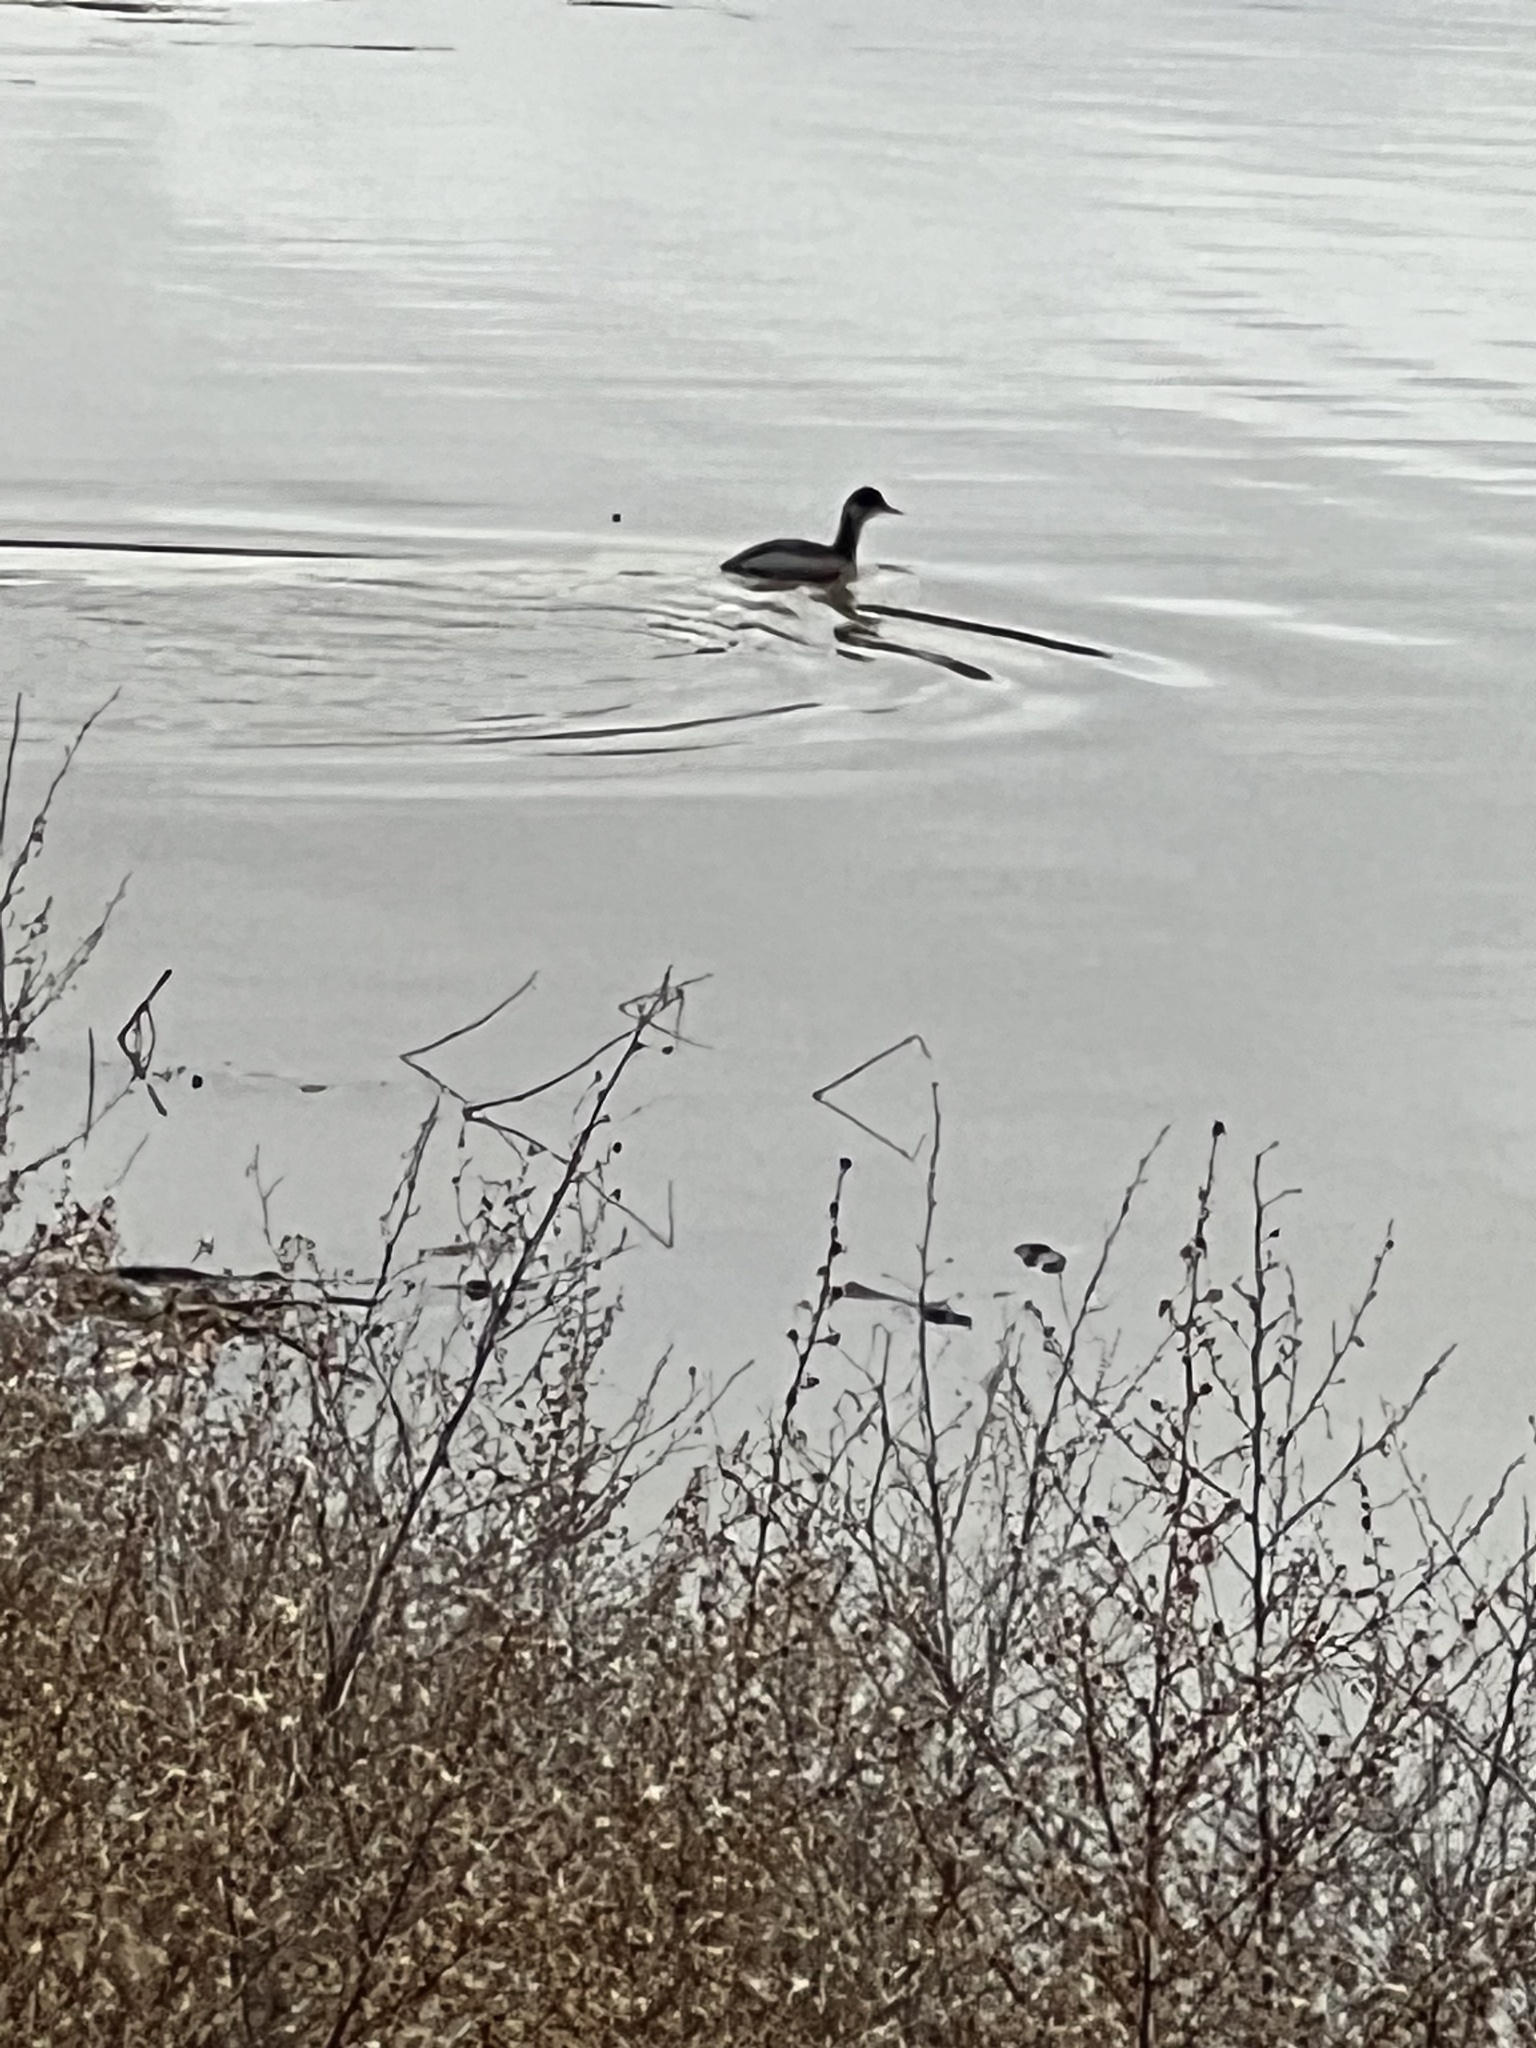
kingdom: Animalia
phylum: Chordata
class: Aves
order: Podicipediformes
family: Podicipedidae
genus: Podiceps
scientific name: Podiceps nigricollis
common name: Black-necked grebe
